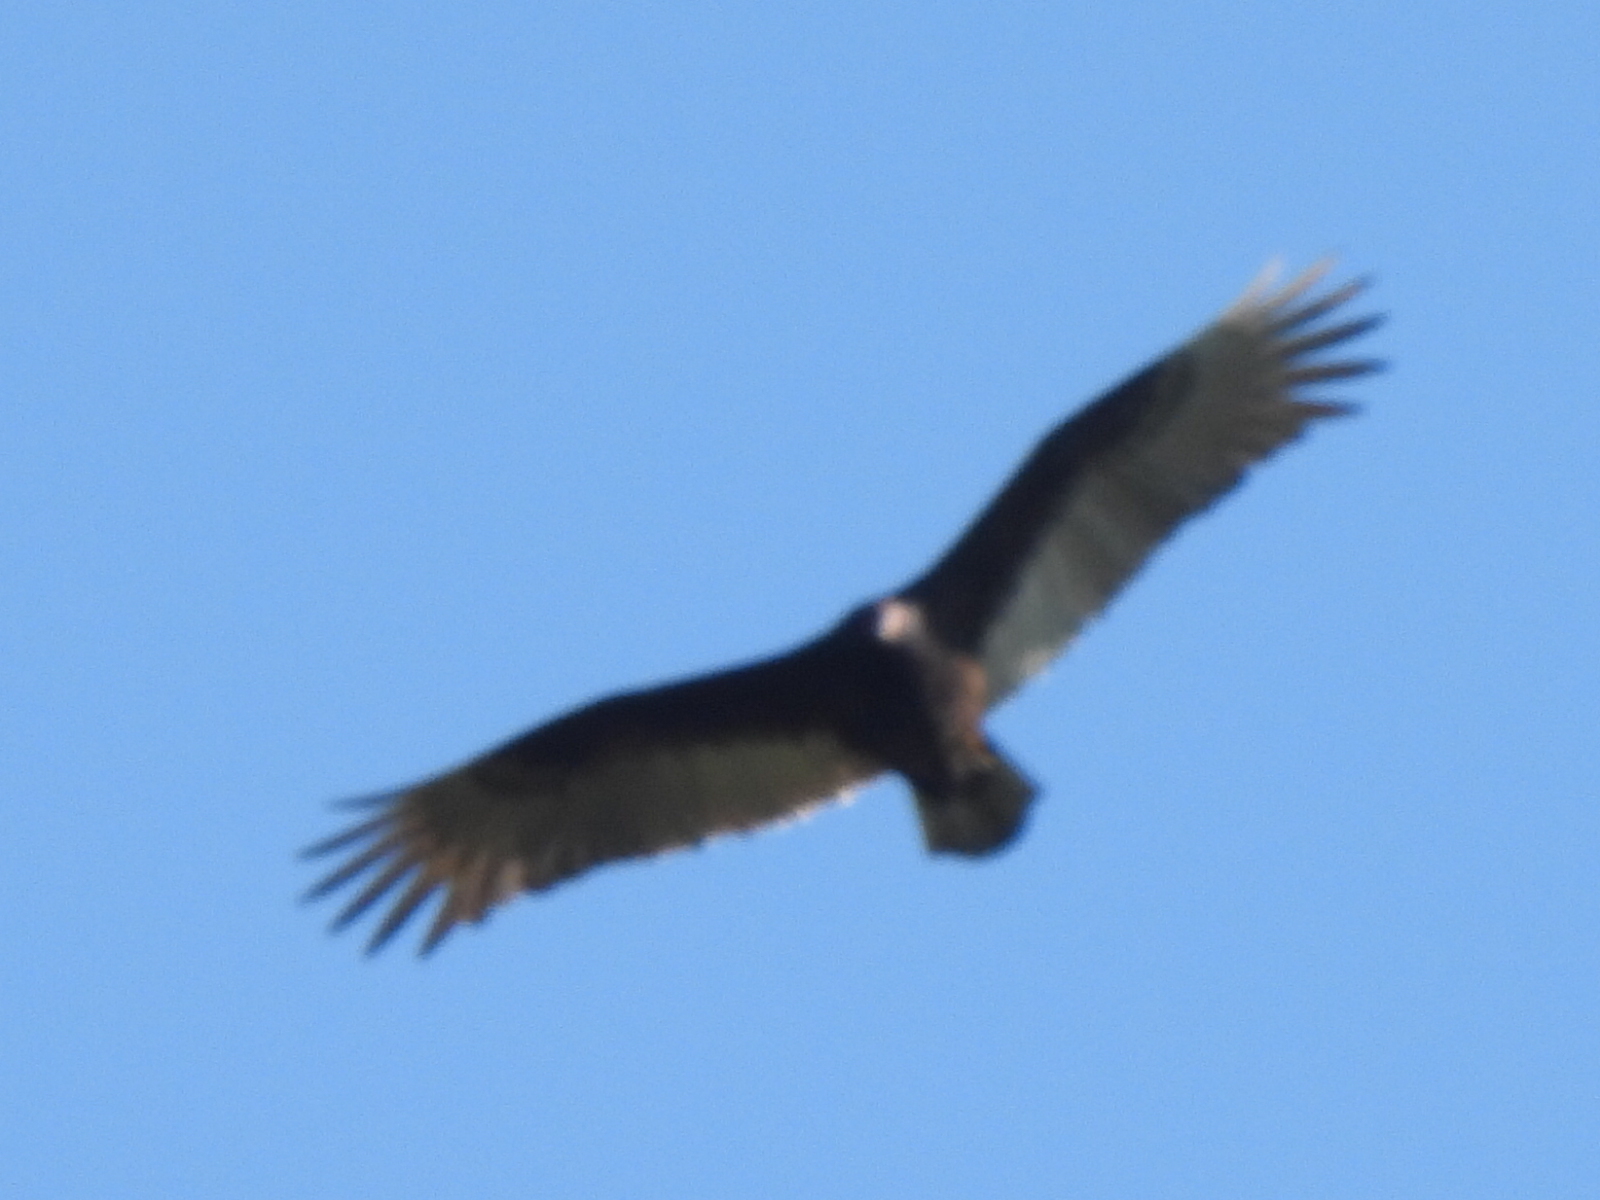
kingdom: Animalia
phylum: Chordata
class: Aves
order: Accipitriformes
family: Cathartidae
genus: Cathartes
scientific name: Cathartes aura
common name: Turkey vulture
